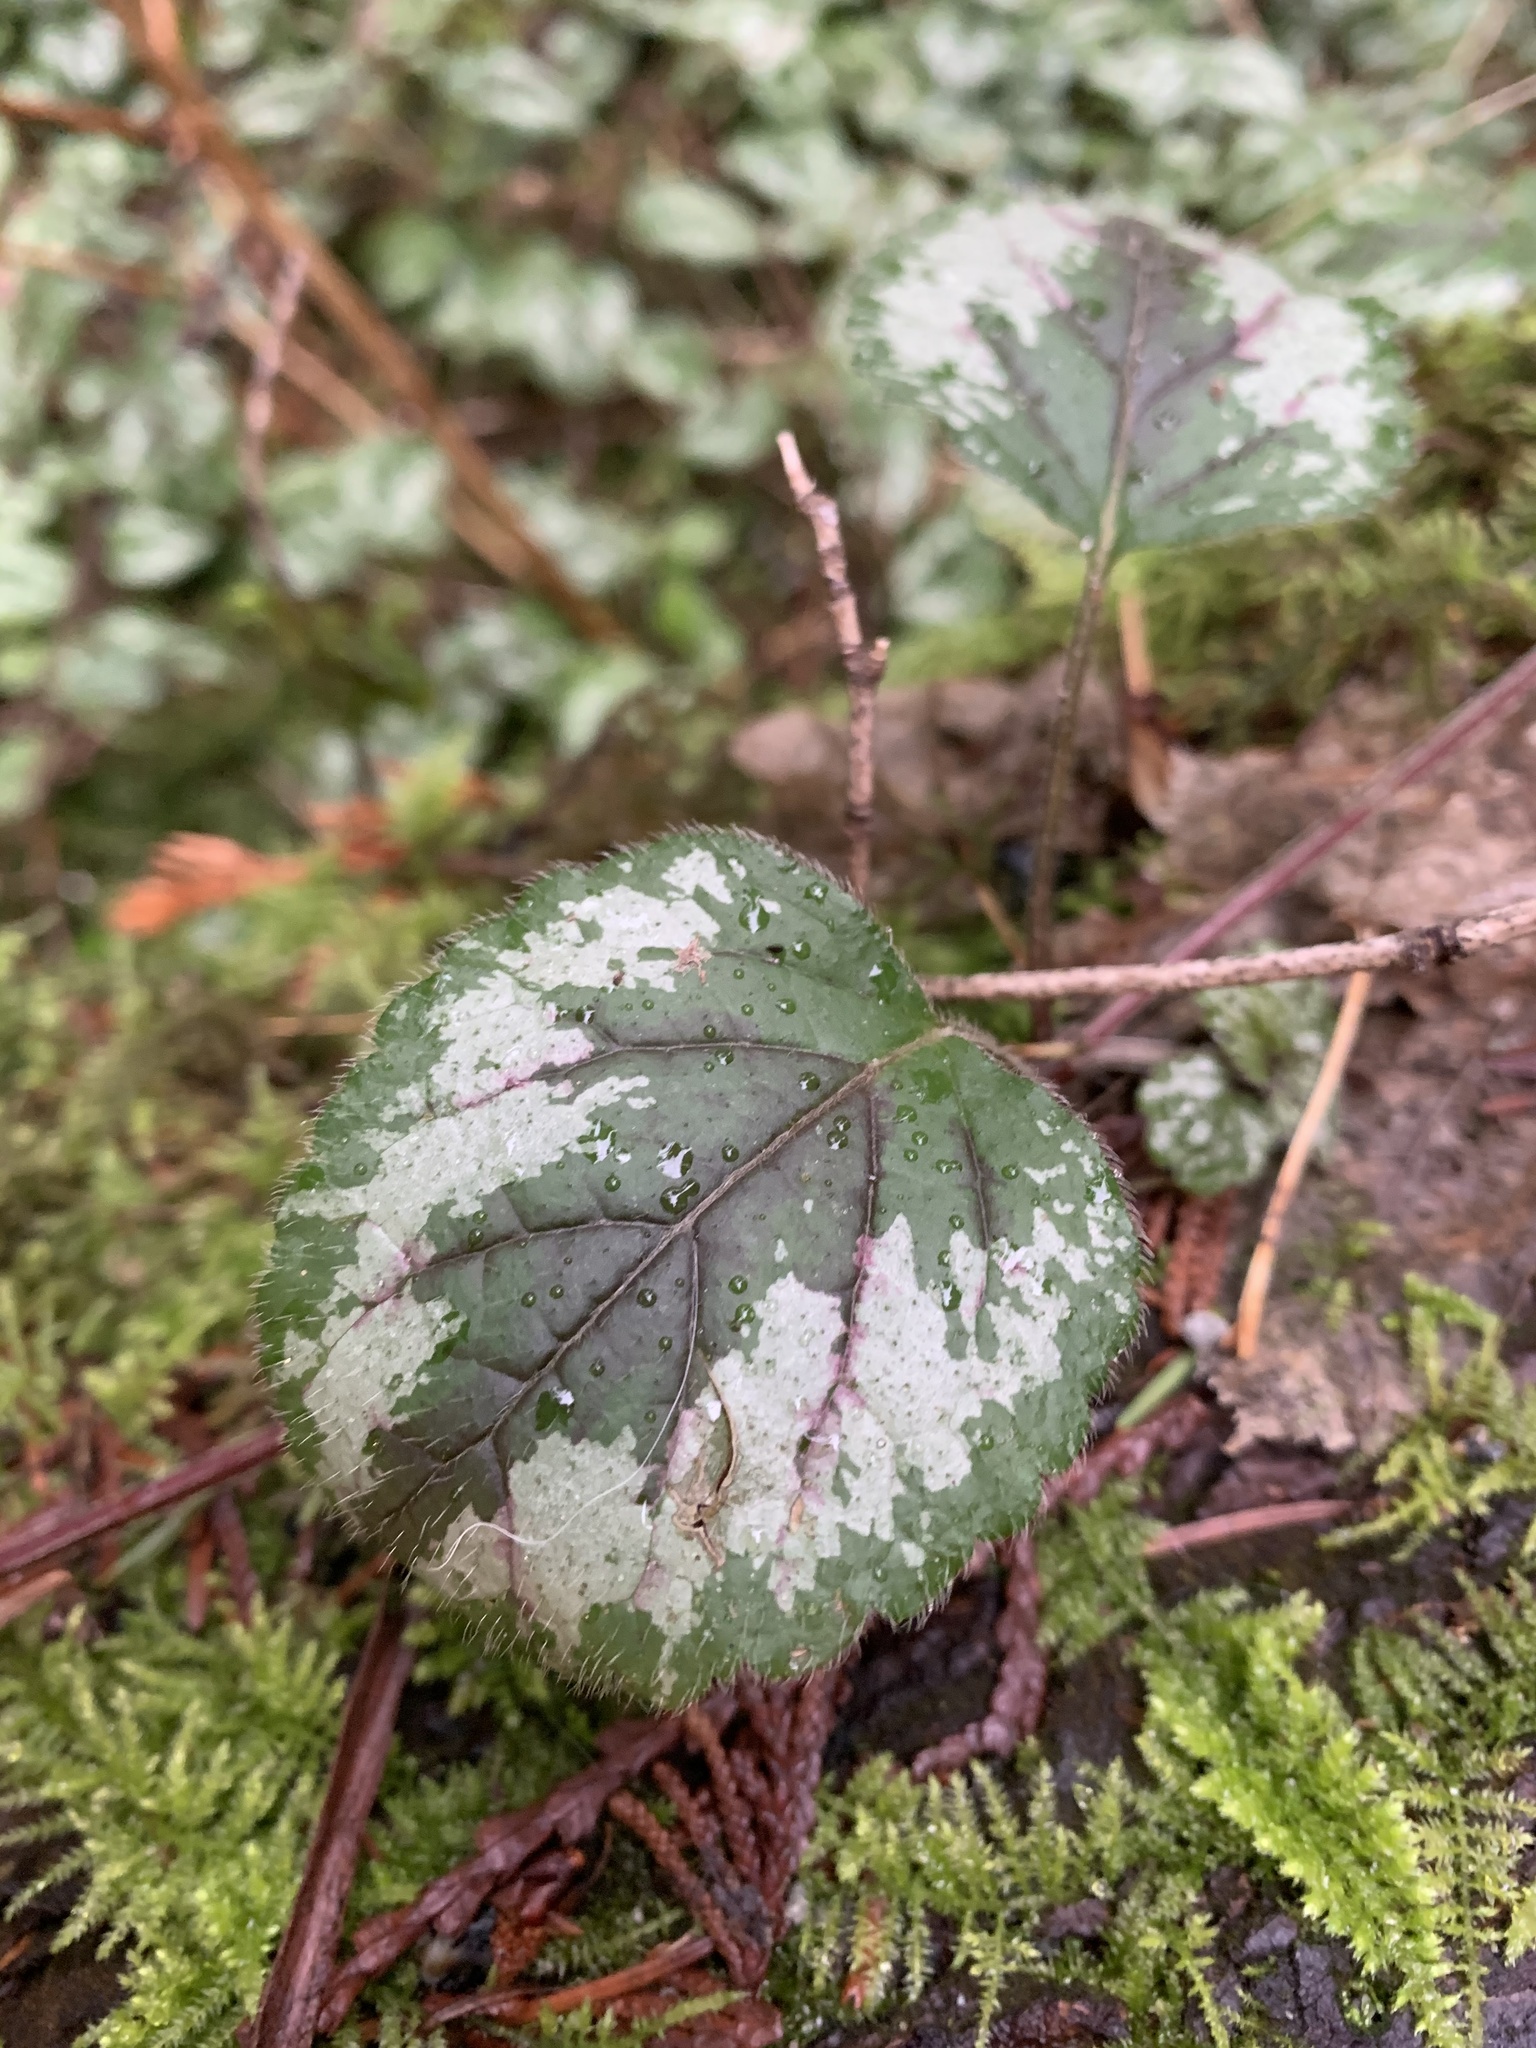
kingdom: Plantae
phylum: Tracheophyta
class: Magnoliopsida
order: Lamiales
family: Lamiaceae
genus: Lamium
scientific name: Lamium galeobdolon
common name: Yellow archangel
